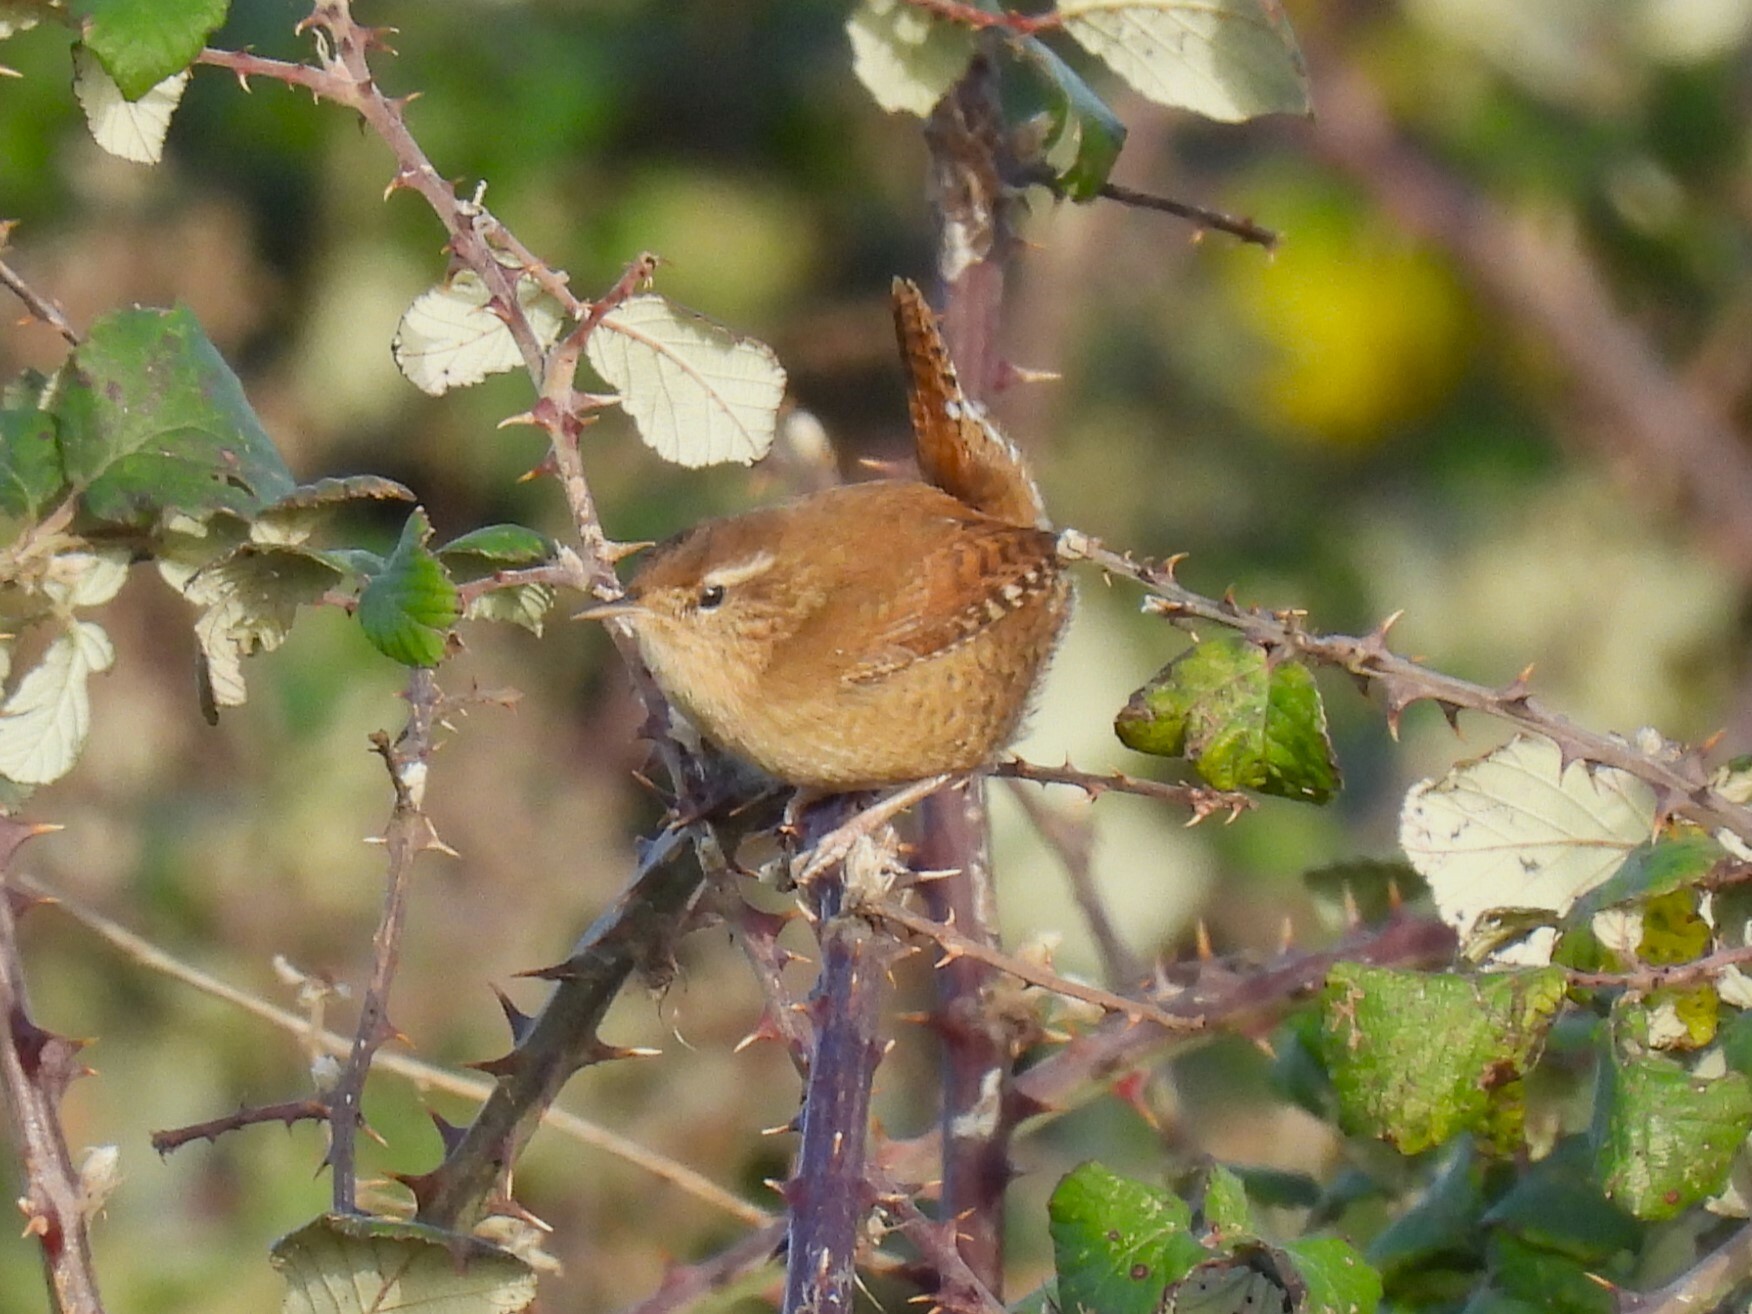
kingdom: Animalia
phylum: Chordata
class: Aves
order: Passeriformes
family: Troglodytidae
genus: Troglodytes
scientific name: Troglodytes troglodytes
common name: Eurasian wren
